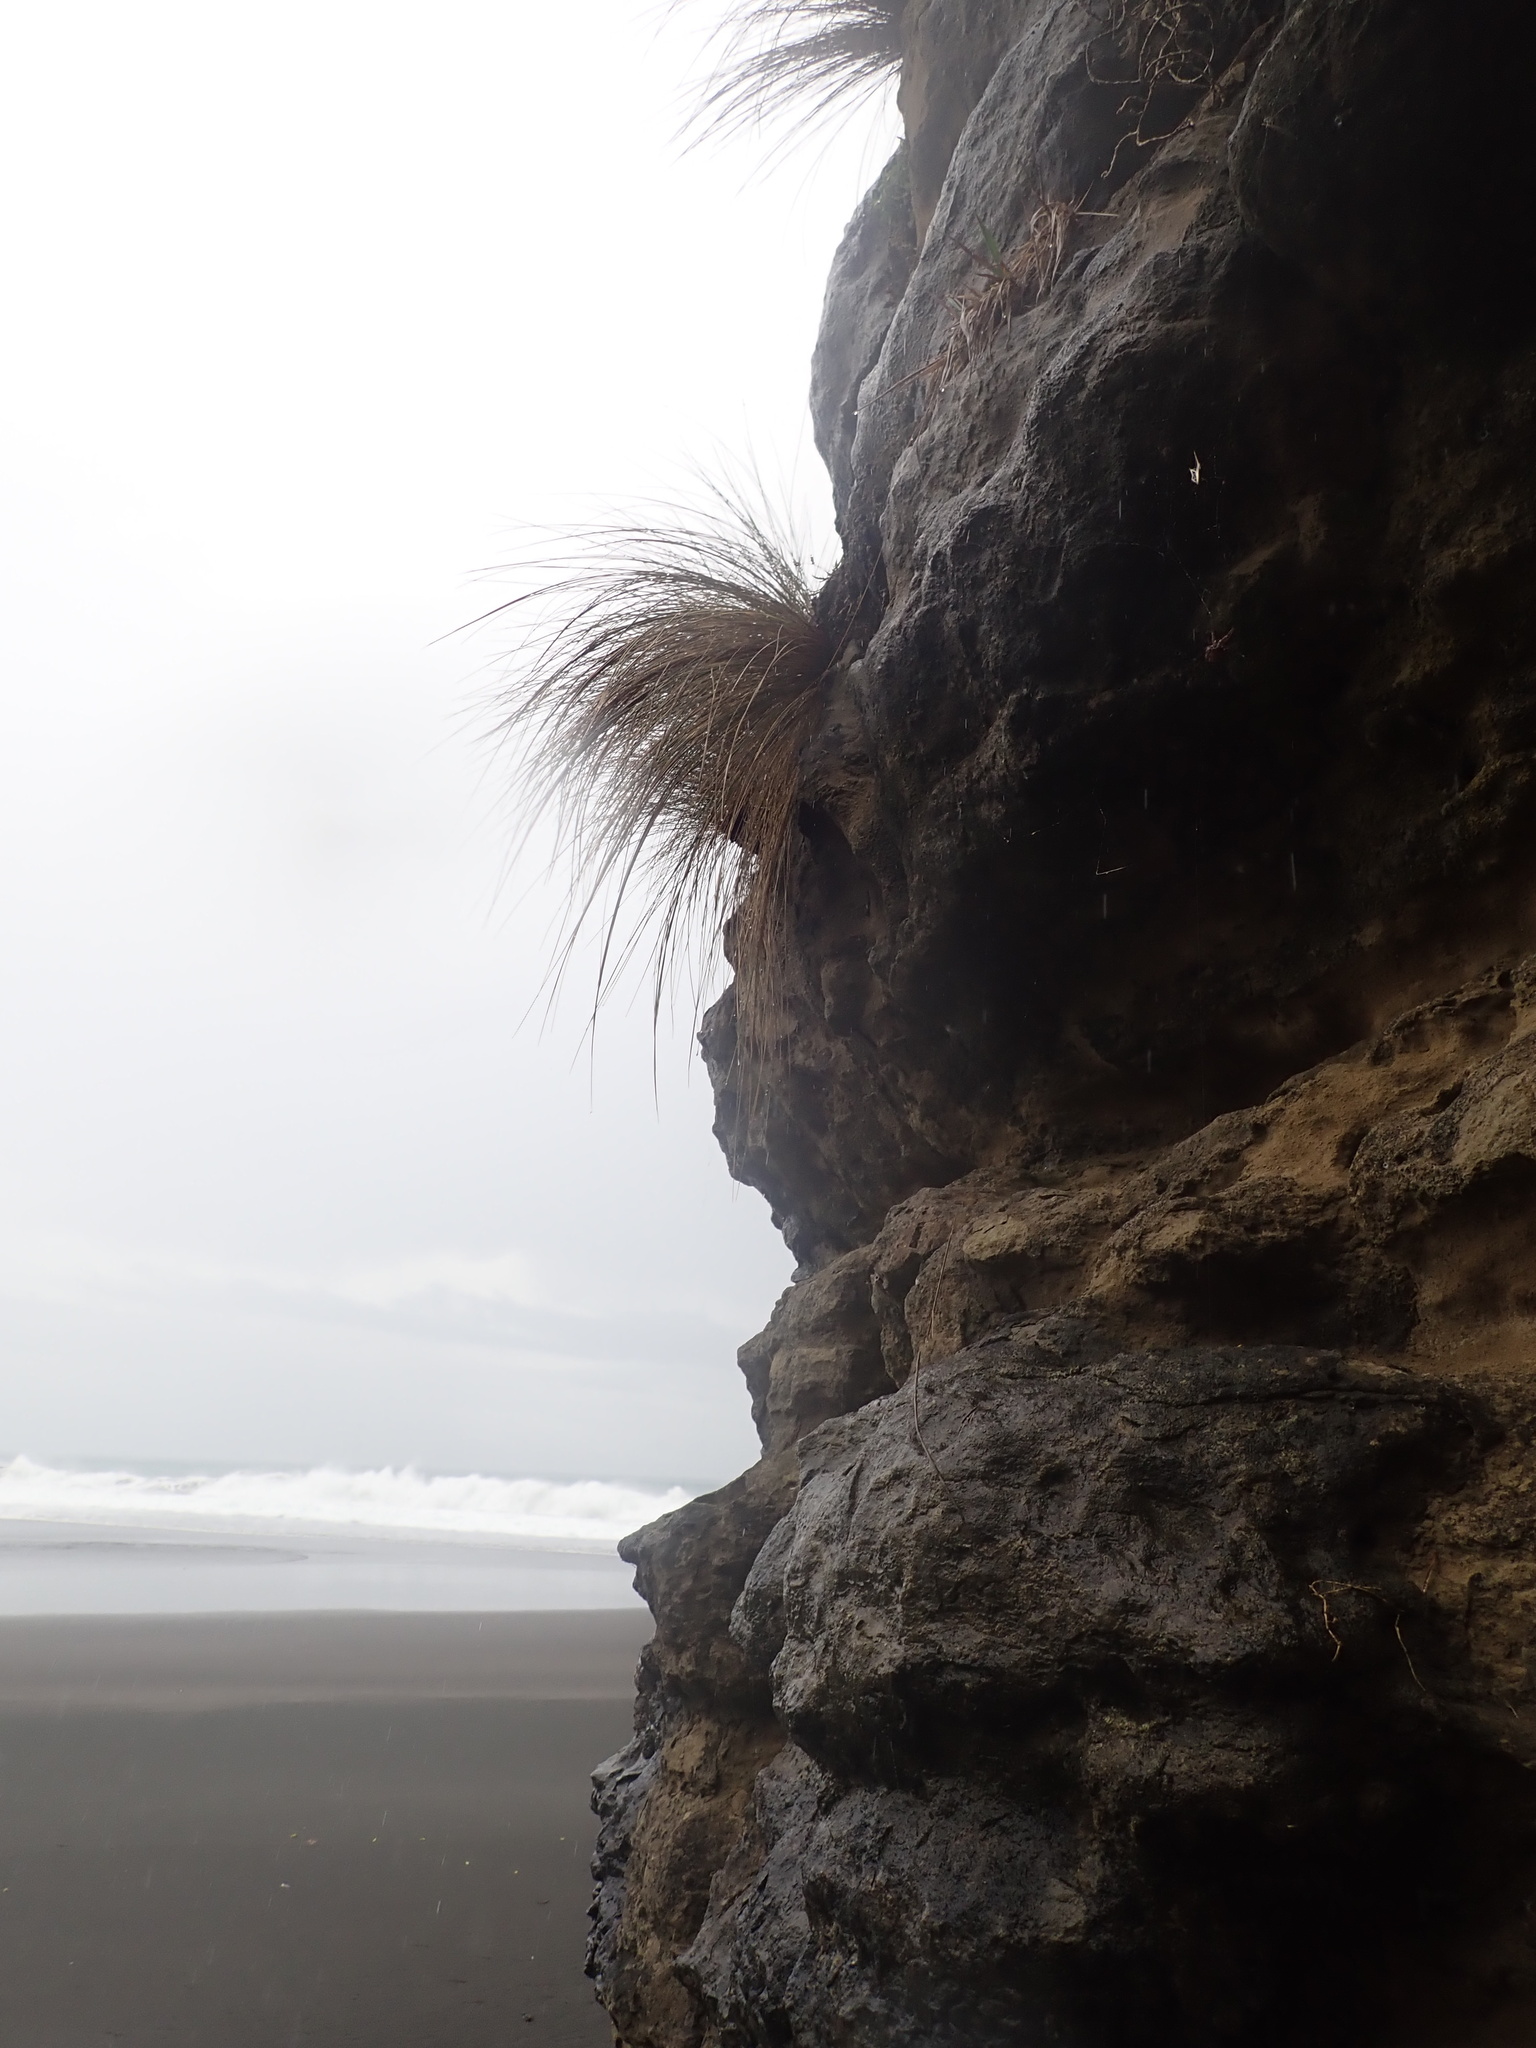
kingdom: Plantae
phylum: Tracheophyta
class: Liliopsida
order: Poales
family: Poaceae
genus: Poa
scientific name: Poa billardierei
